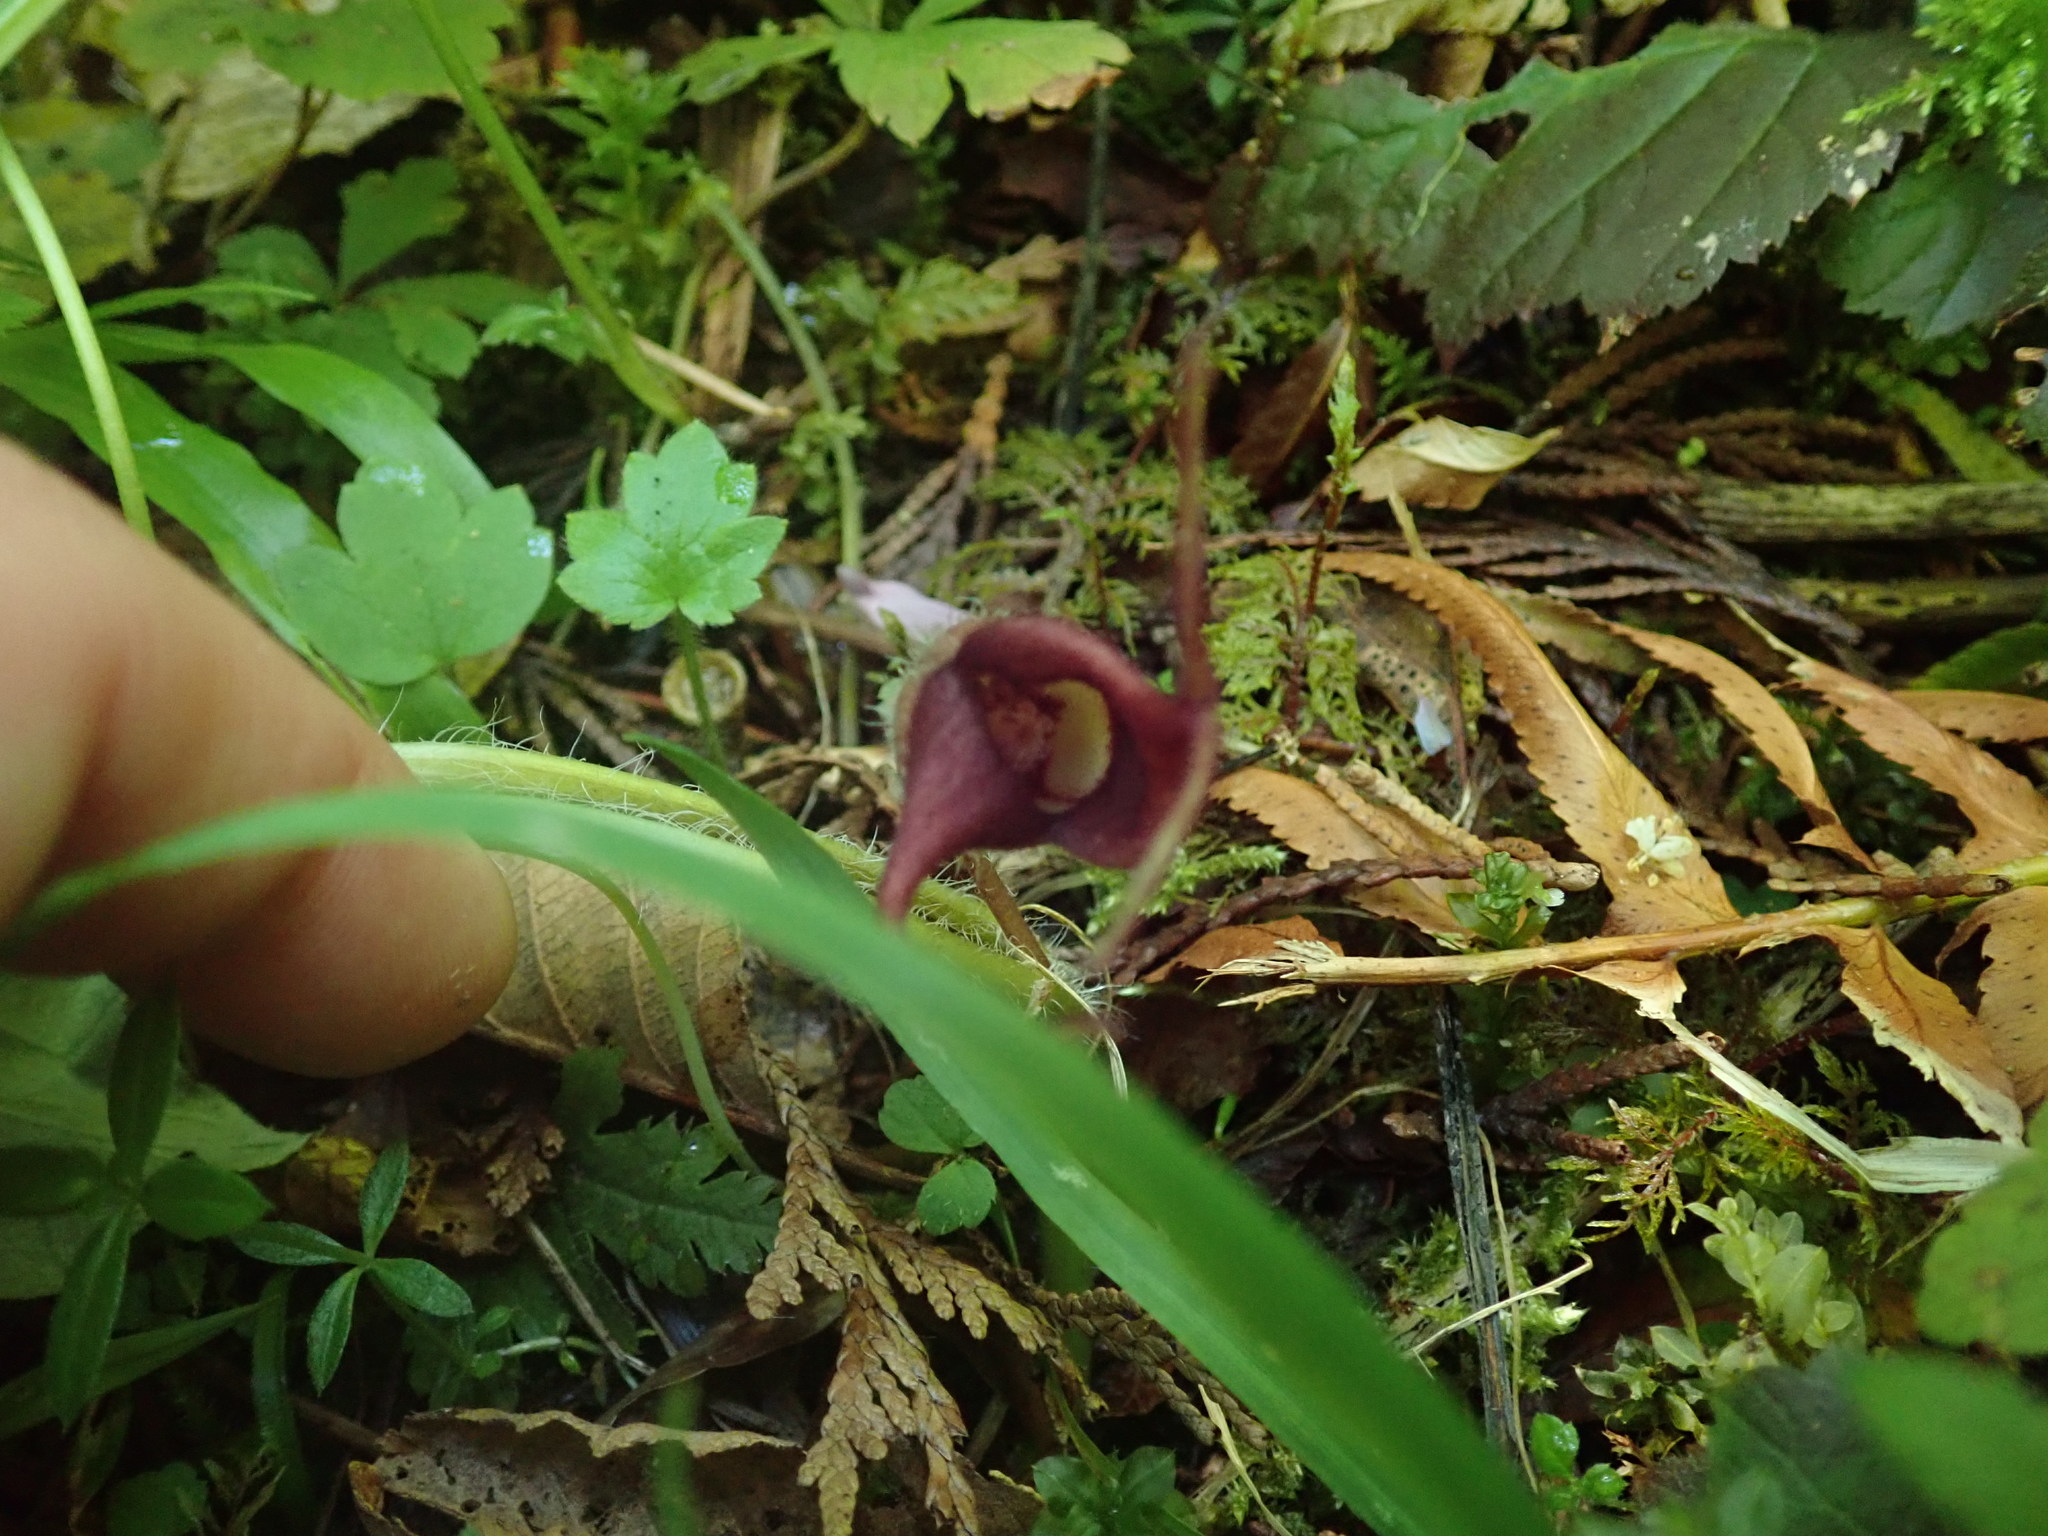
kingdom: Plantae
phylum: Tracheophyta
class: Magnoliopsida
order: Piperales
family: Aristolochiaceae
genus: Asarum
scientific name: Asarum caudatum
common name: Wild ginger
